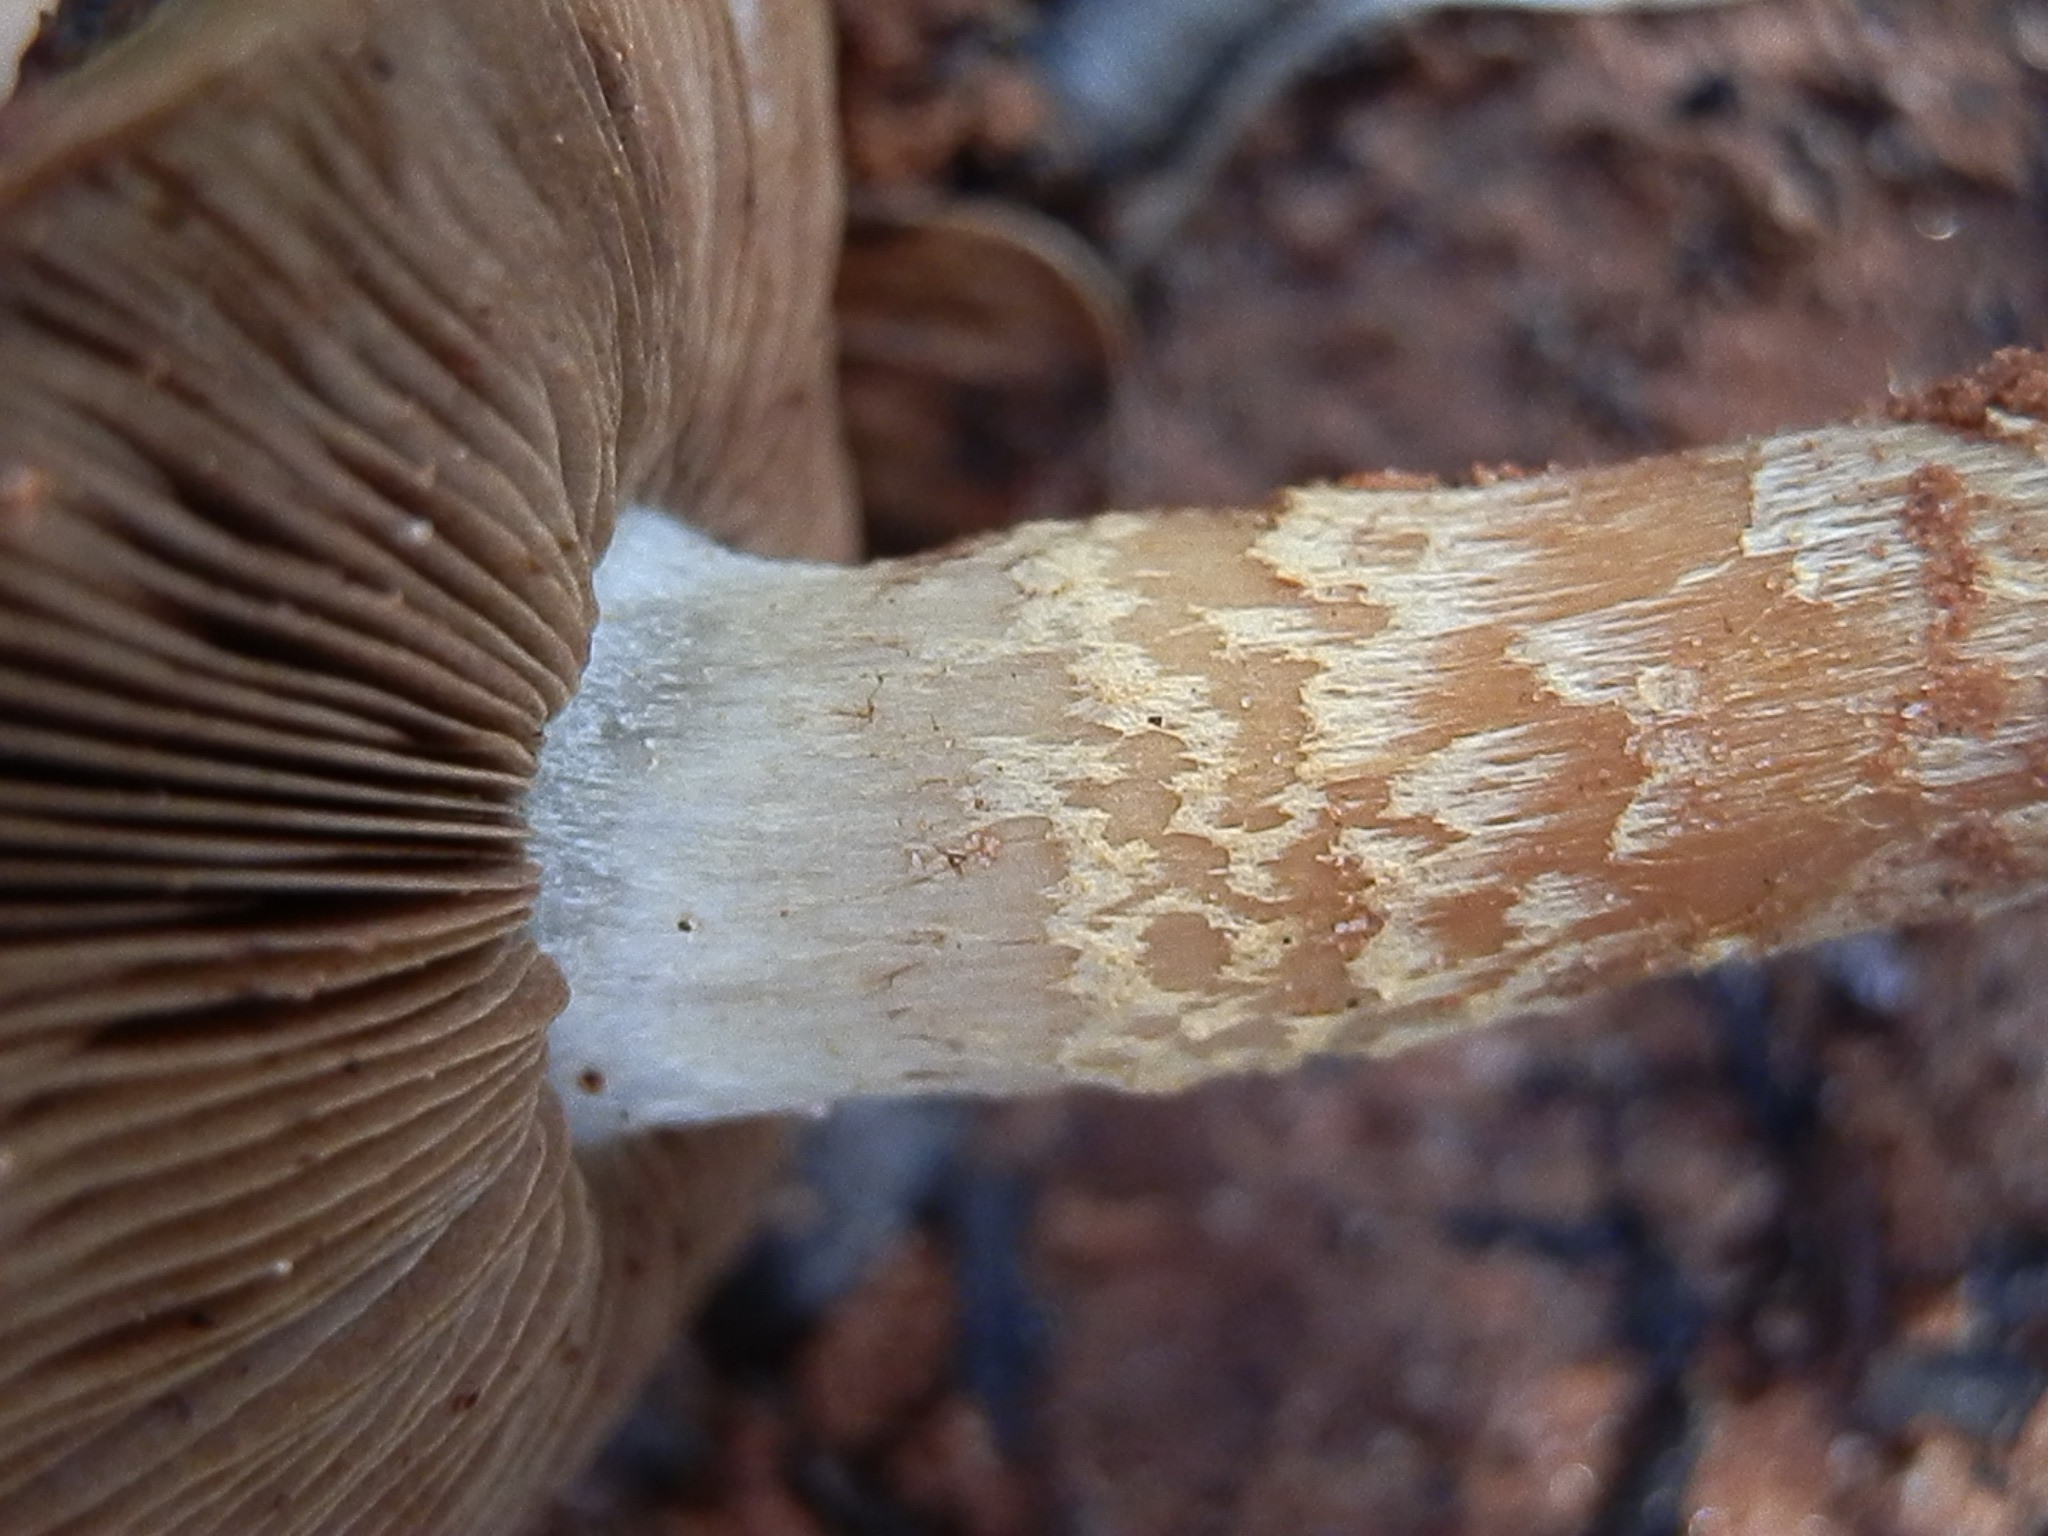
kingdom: Fungi
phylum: Basidiomycota
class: Agaricomycetes
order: Agaricales
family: Strophariaceae
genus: Pholiota
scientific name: Pholiota foedata
